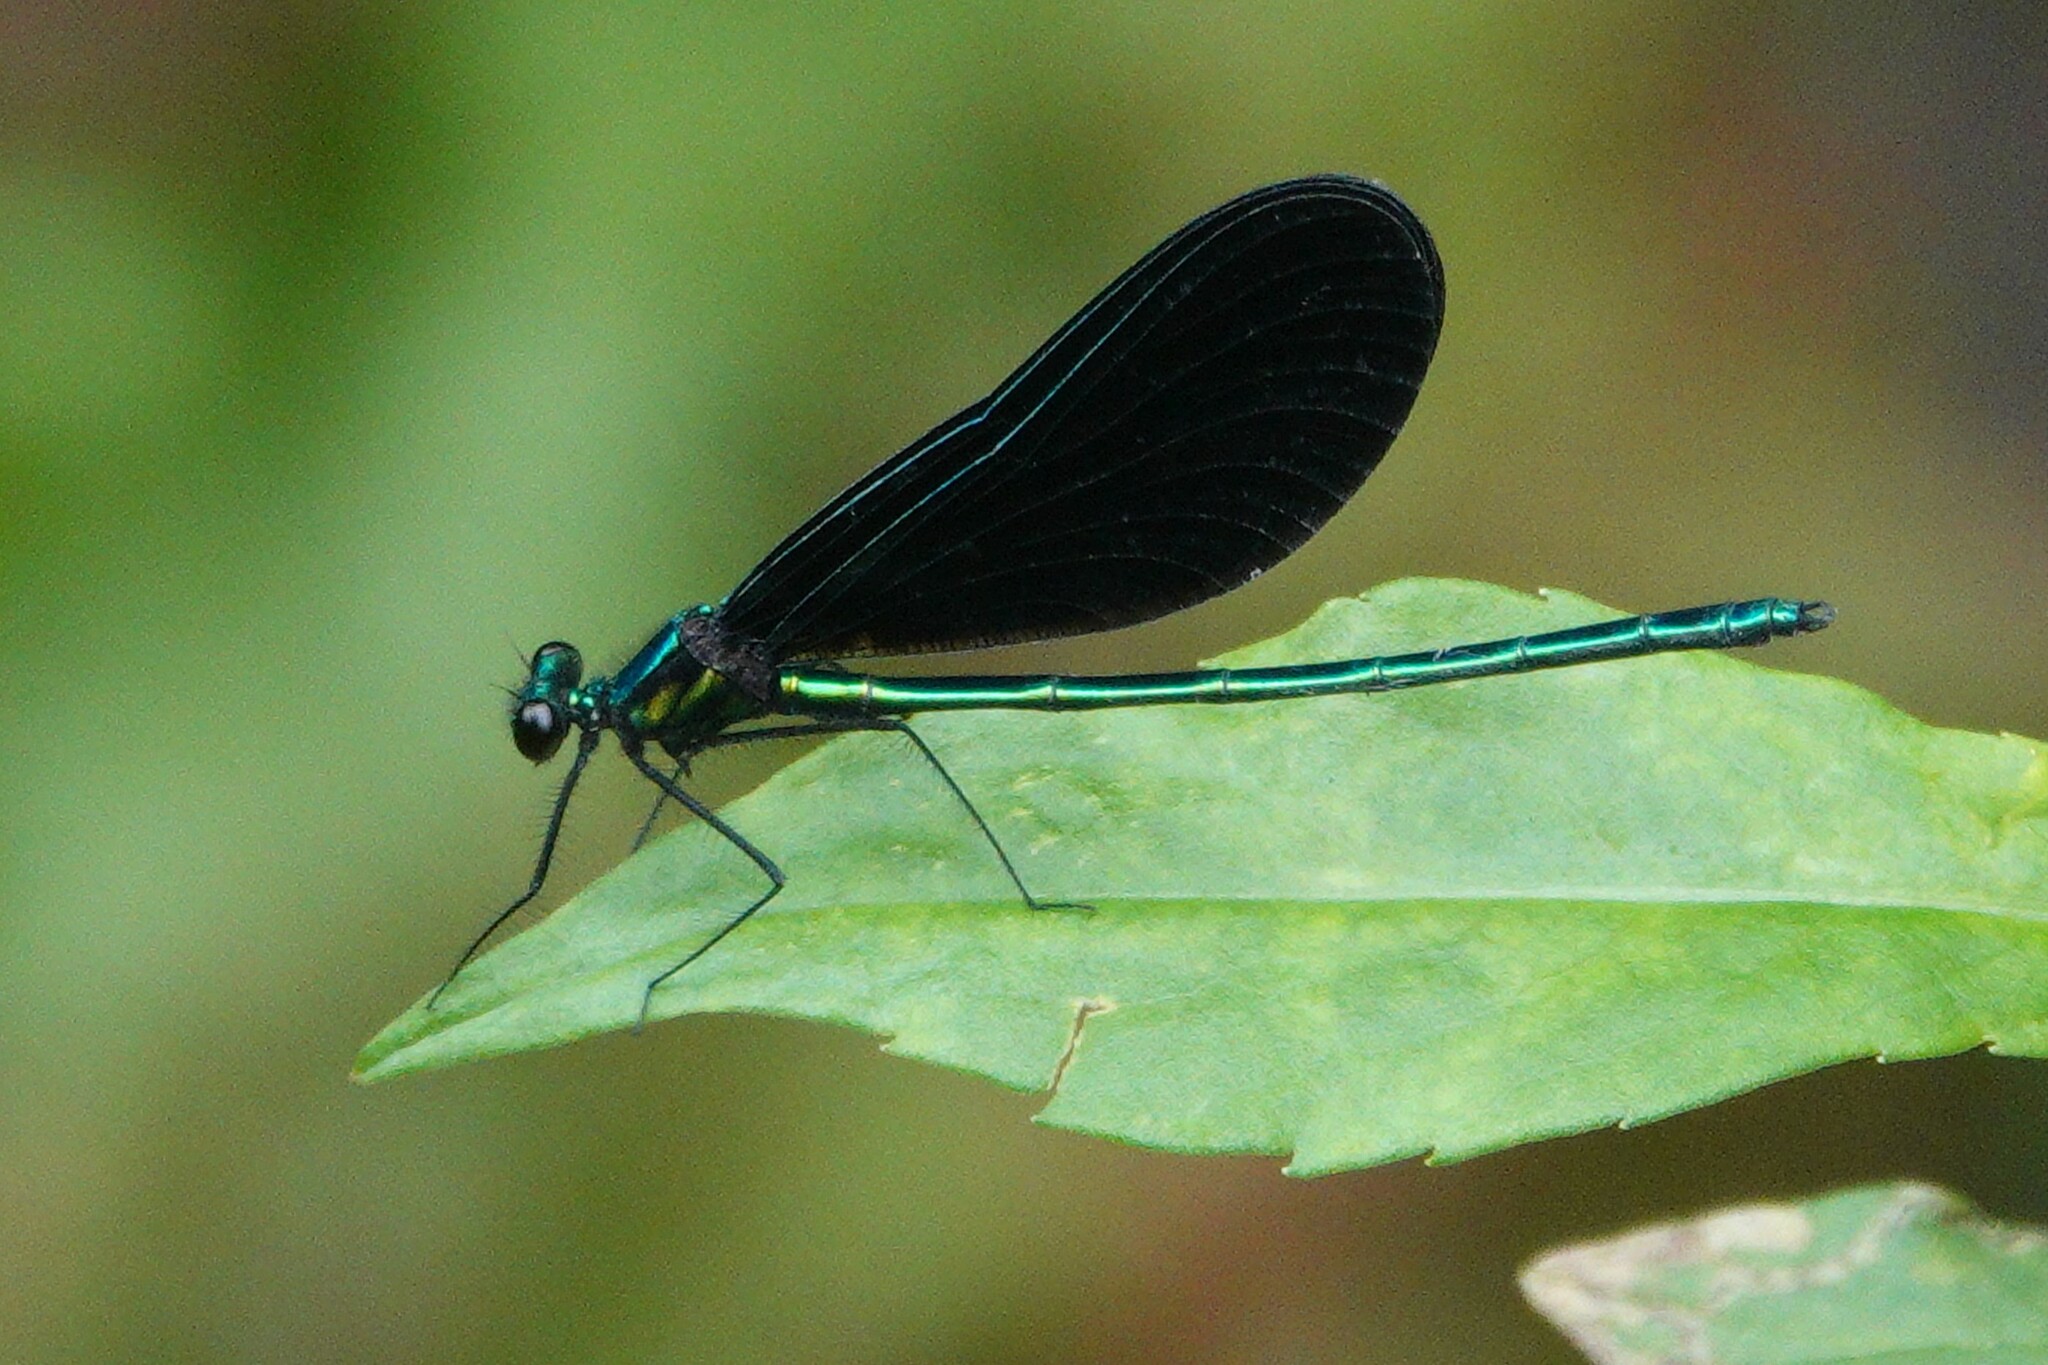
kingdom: Animalia
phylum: Arthropoda
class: Insecta
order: Odonata
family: Calopterygidae
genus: Calopteryx
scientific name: Calopteryx maculata
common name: Ebony jewelwing
